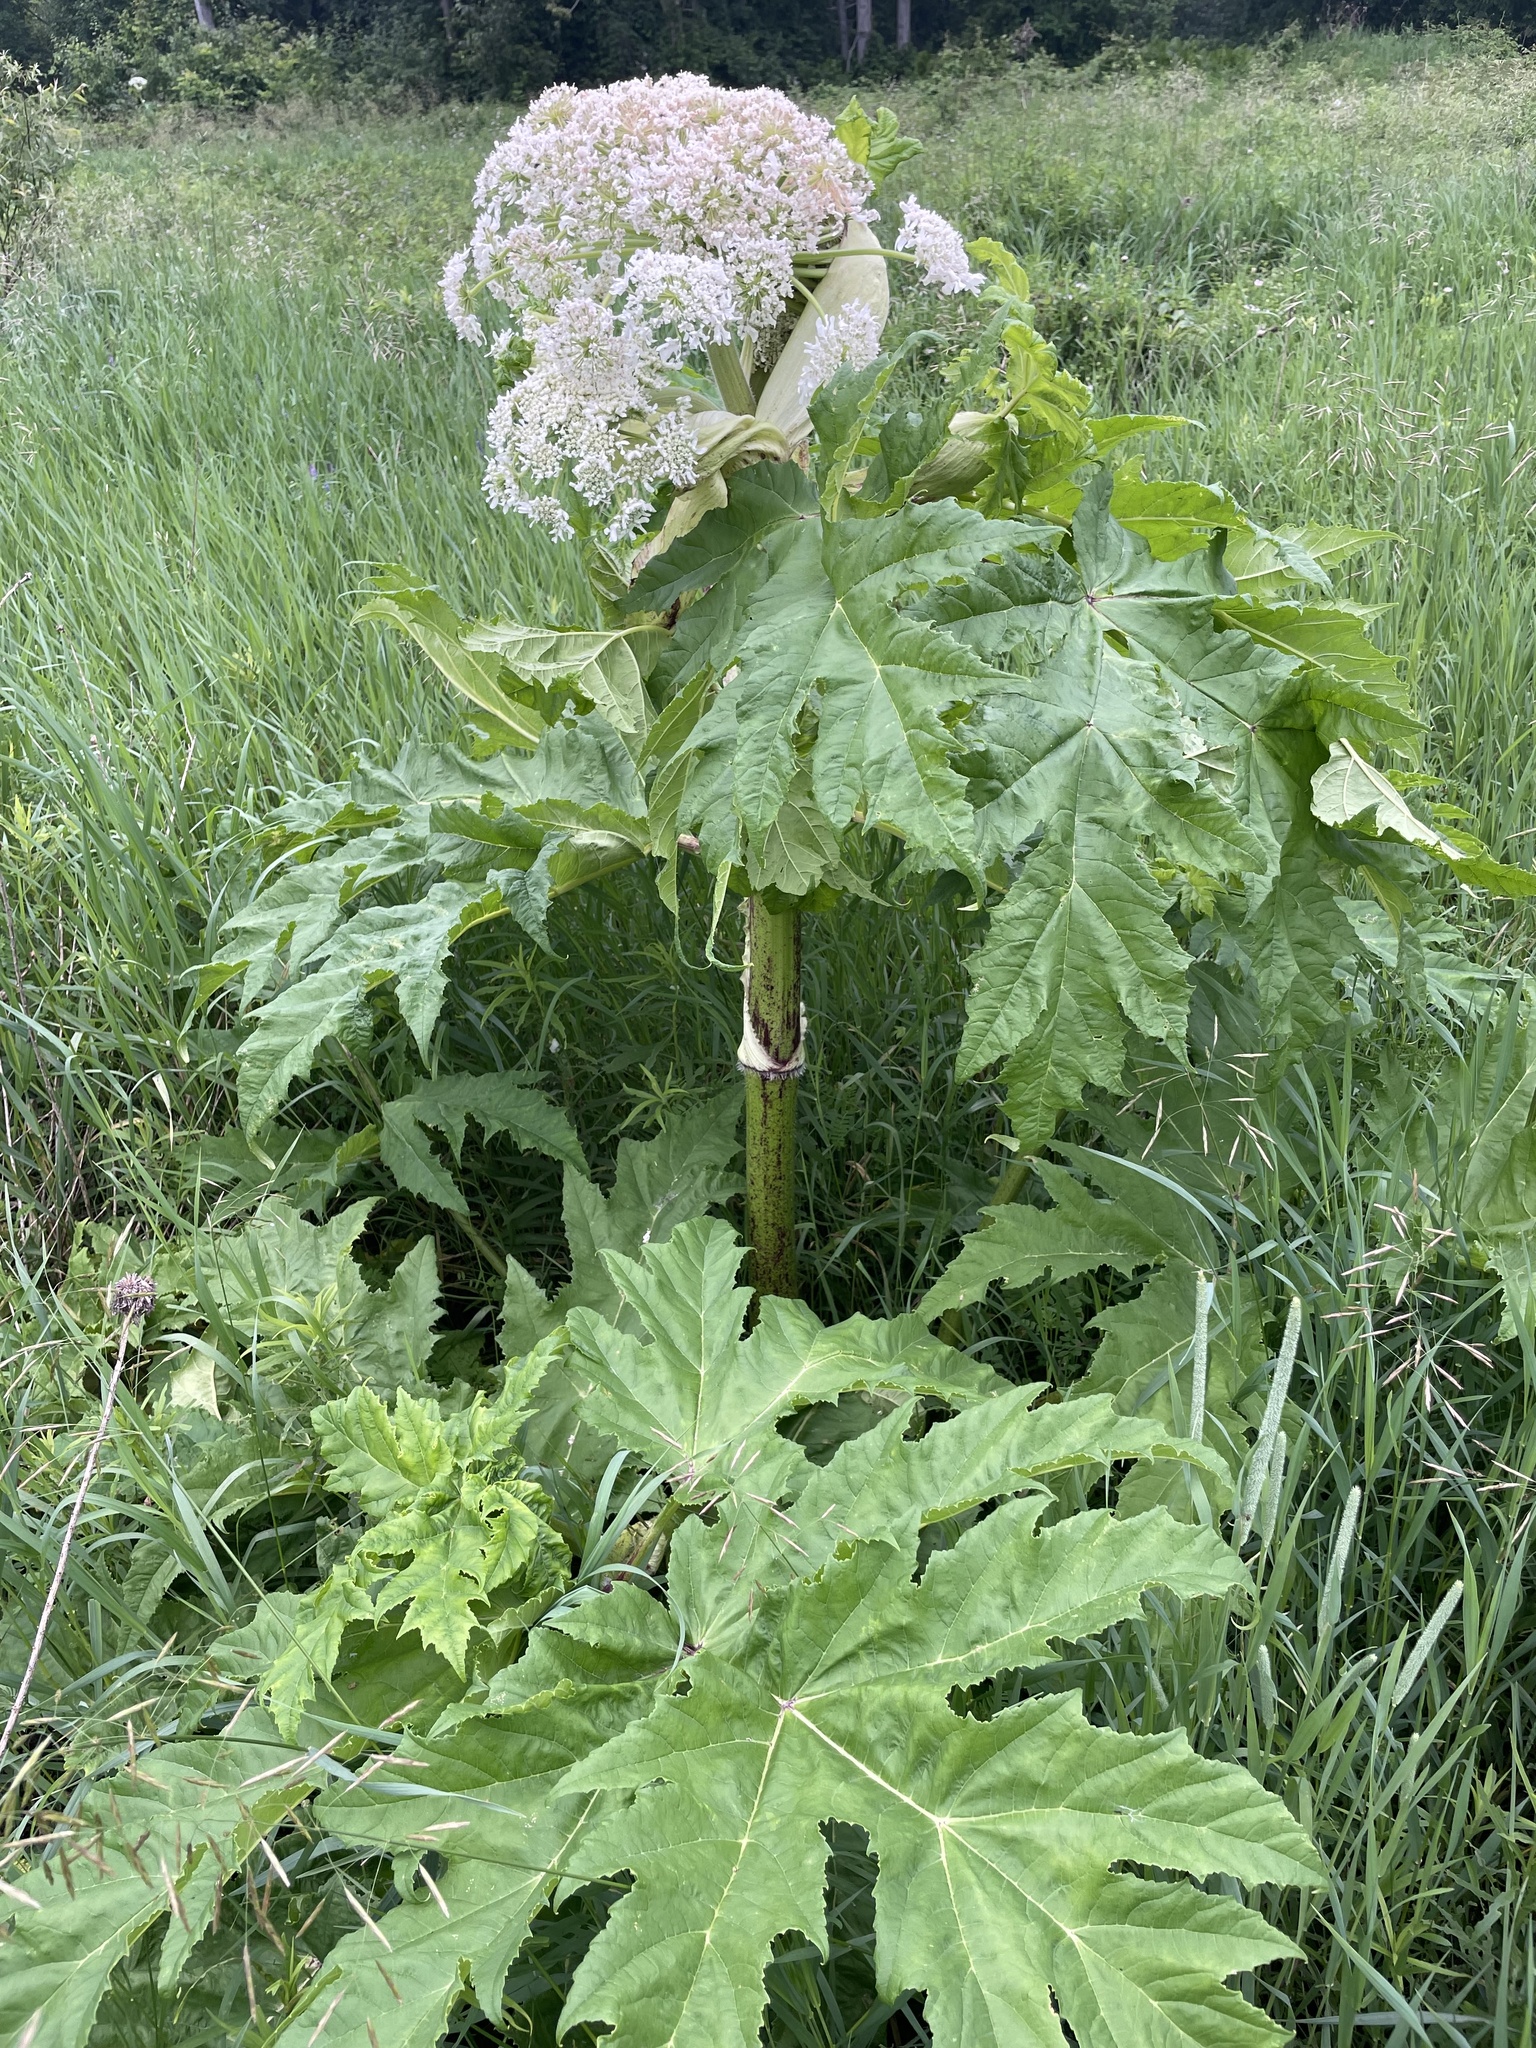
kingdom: Plantae
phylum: Tracheophyta
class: Magnoliopsida
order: Apiales
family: Apiaceae
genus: Heracleum
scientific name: Heracleum mantegazzianum
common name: Giant hogweed
